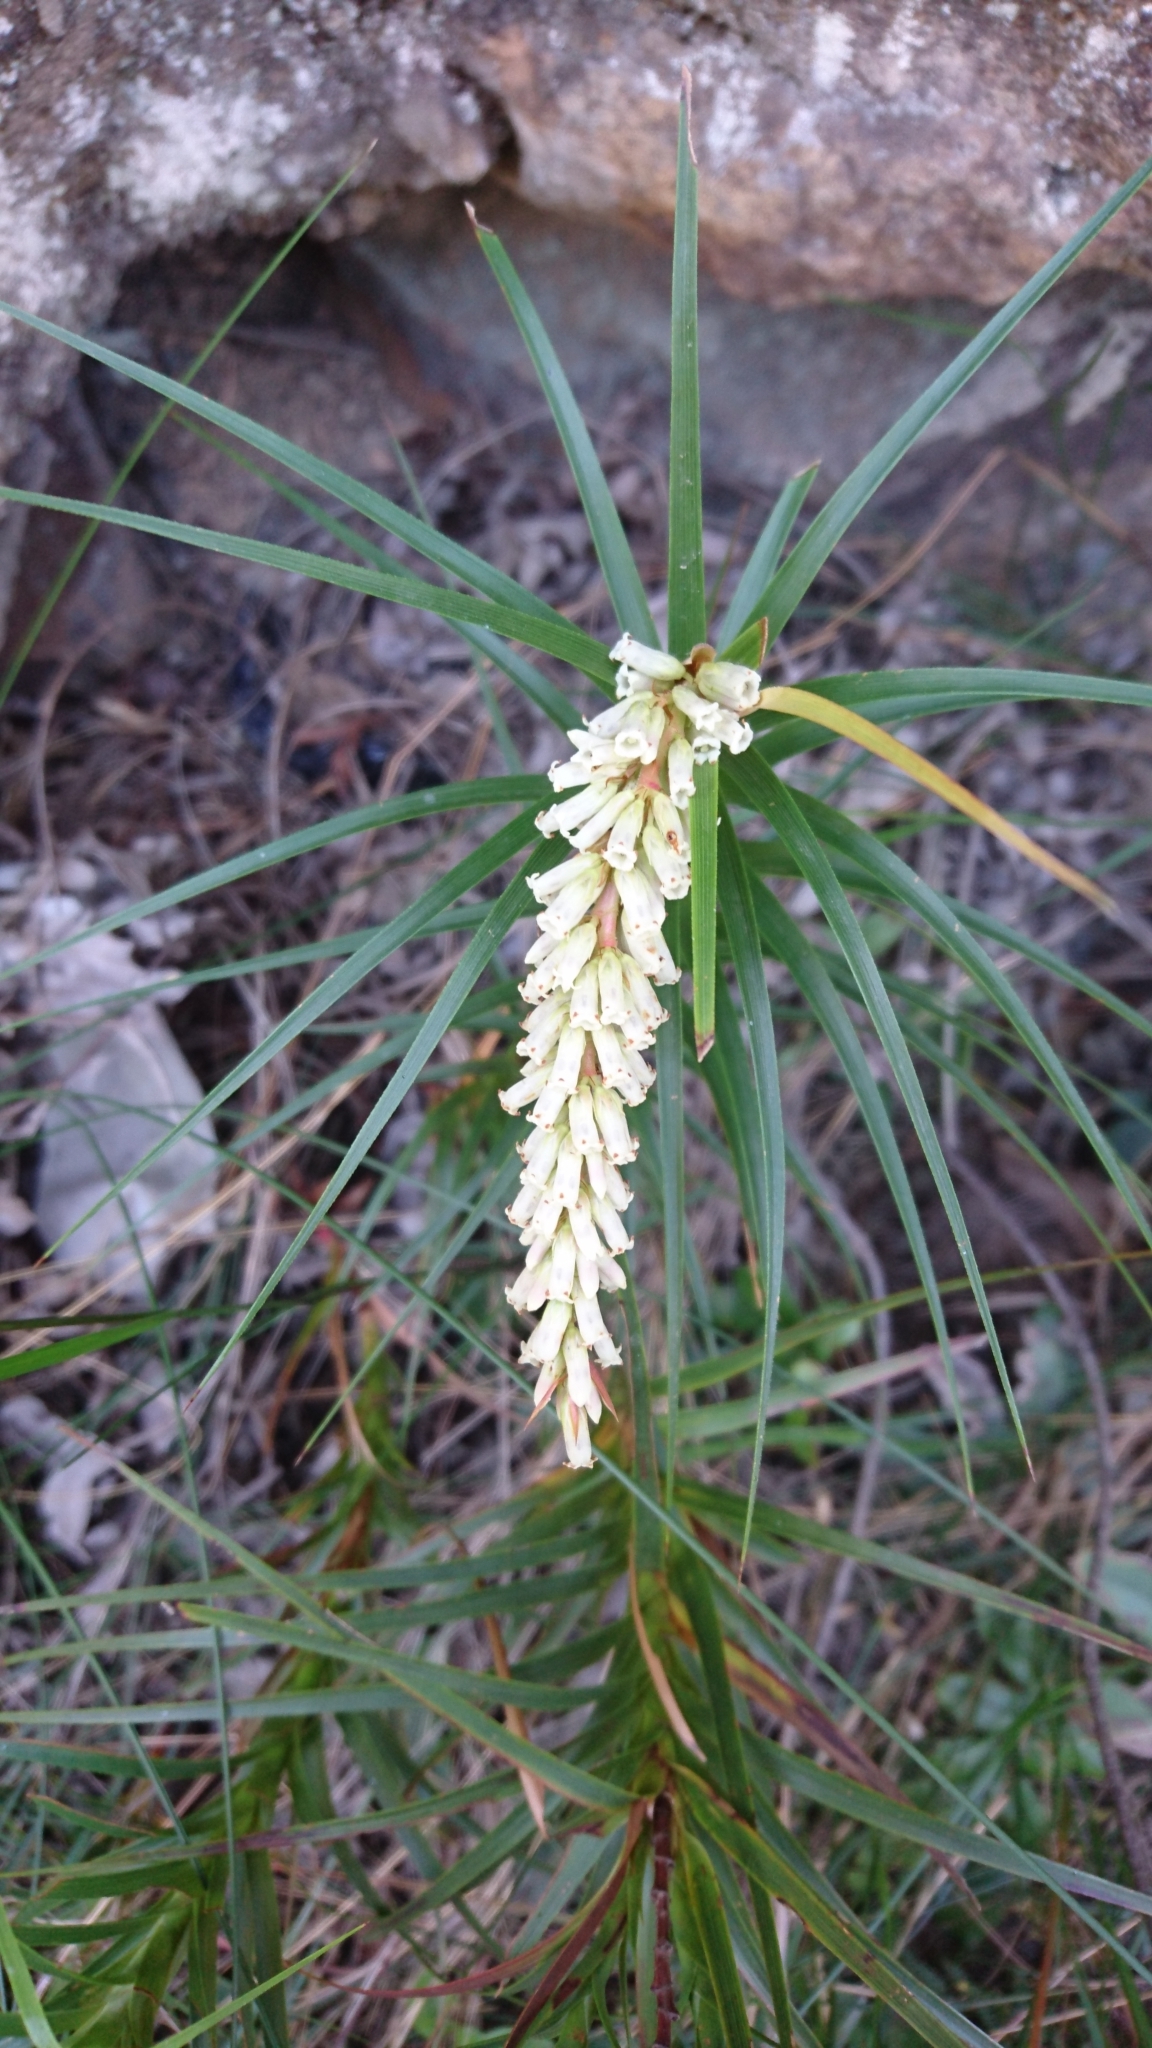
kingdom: Plantae
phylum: Tracheophyta
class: Magnoliopsida
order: Ericales
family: Ericaceae
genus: Dracophyllum
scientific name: Dracophyllum secundum
